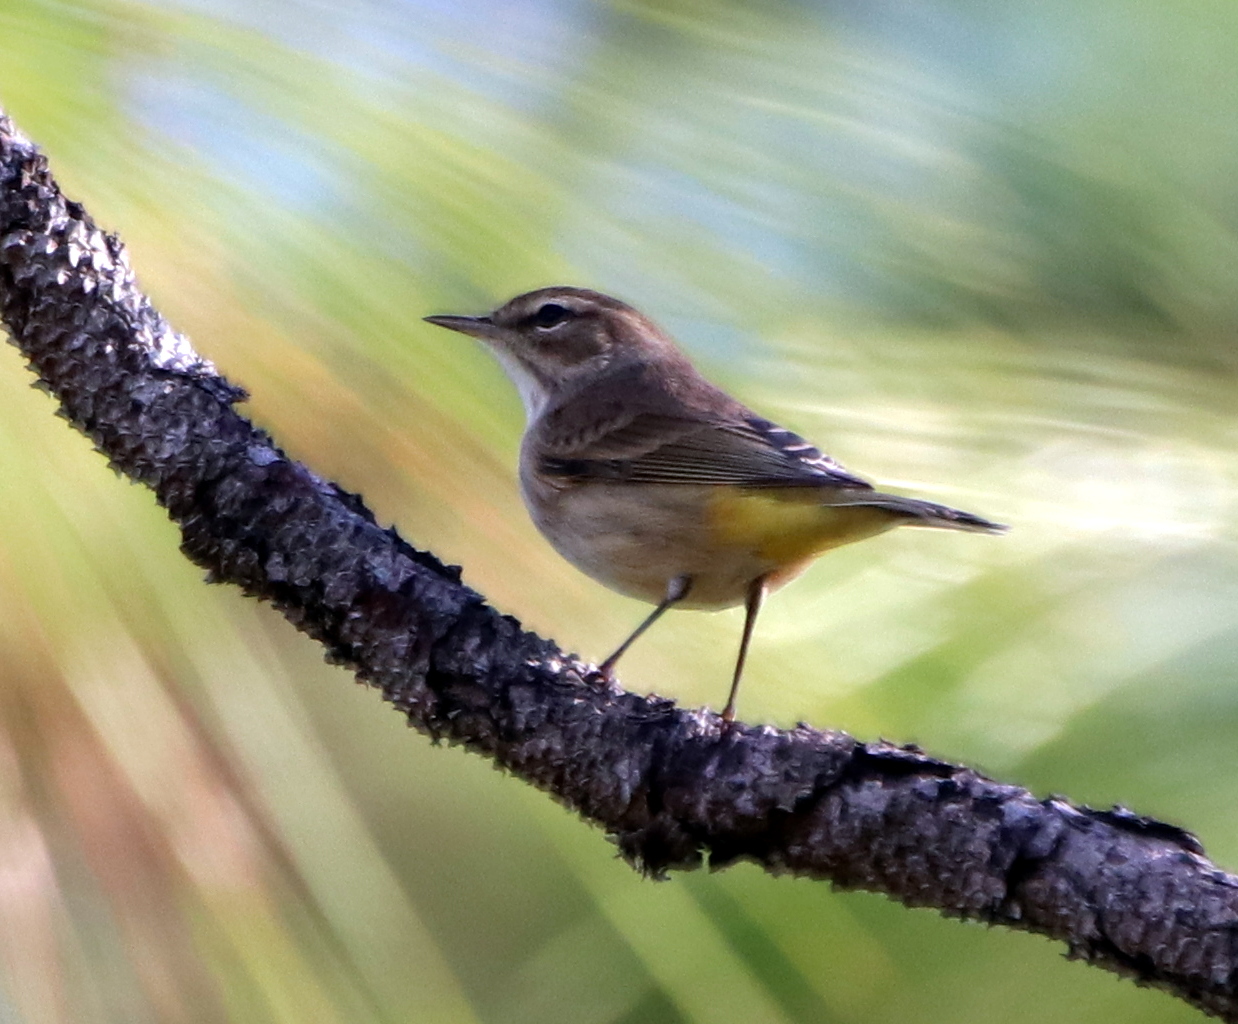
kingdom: Animalia
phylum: Chordata
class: Aves
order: Passeriformes
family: Parulidae
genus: Setophaga
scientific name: Setophaga palmarum
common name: Palm warbler
